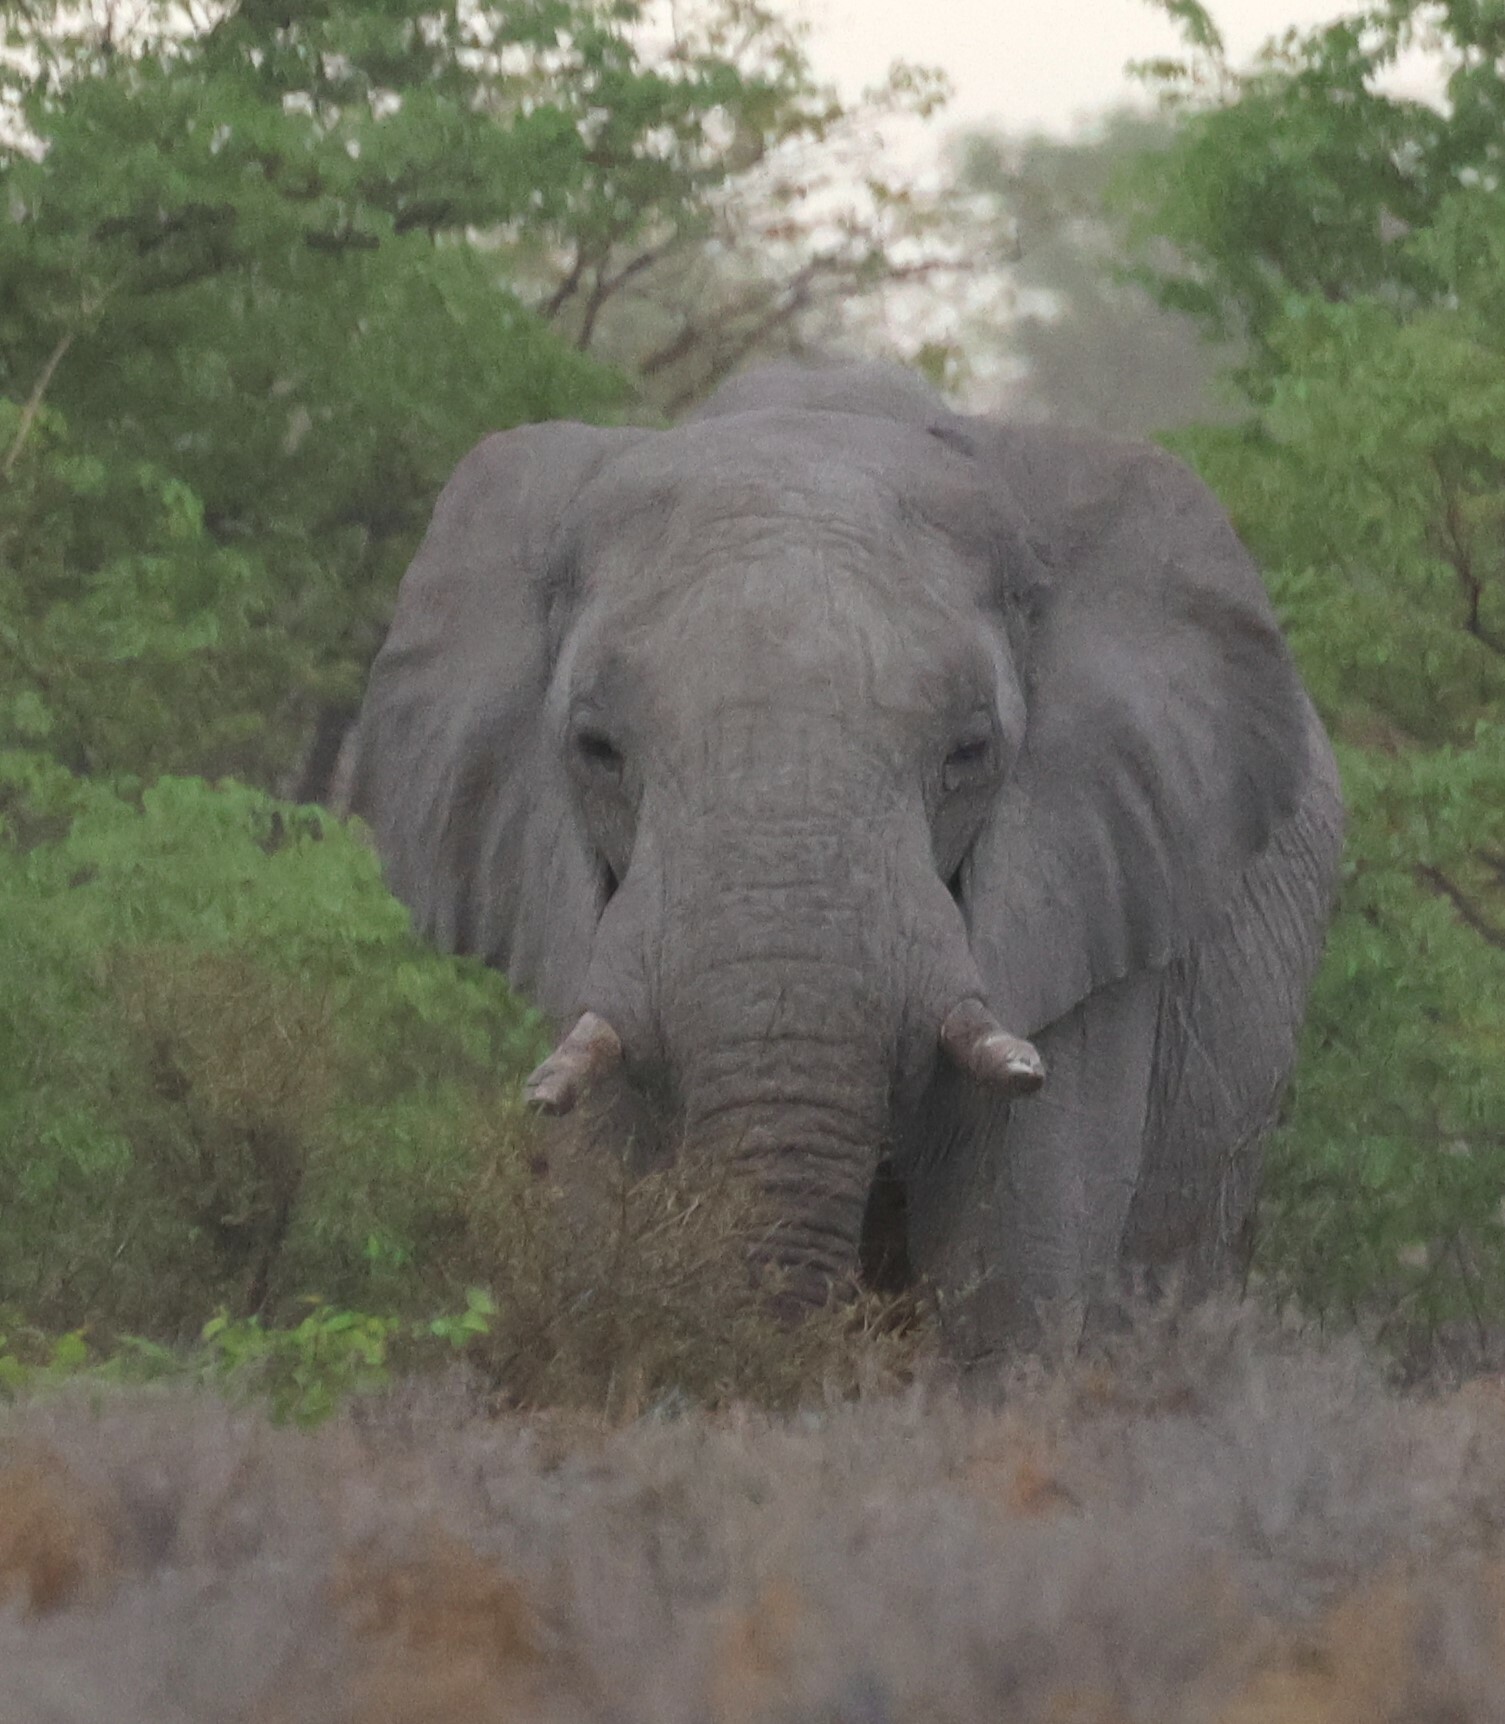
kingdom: Animalia
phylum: Chordata
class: Mammalia
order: Proboscidea
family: Elephantidae
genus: Loxodonta
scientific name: Loxodonta africana
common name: African elephant
